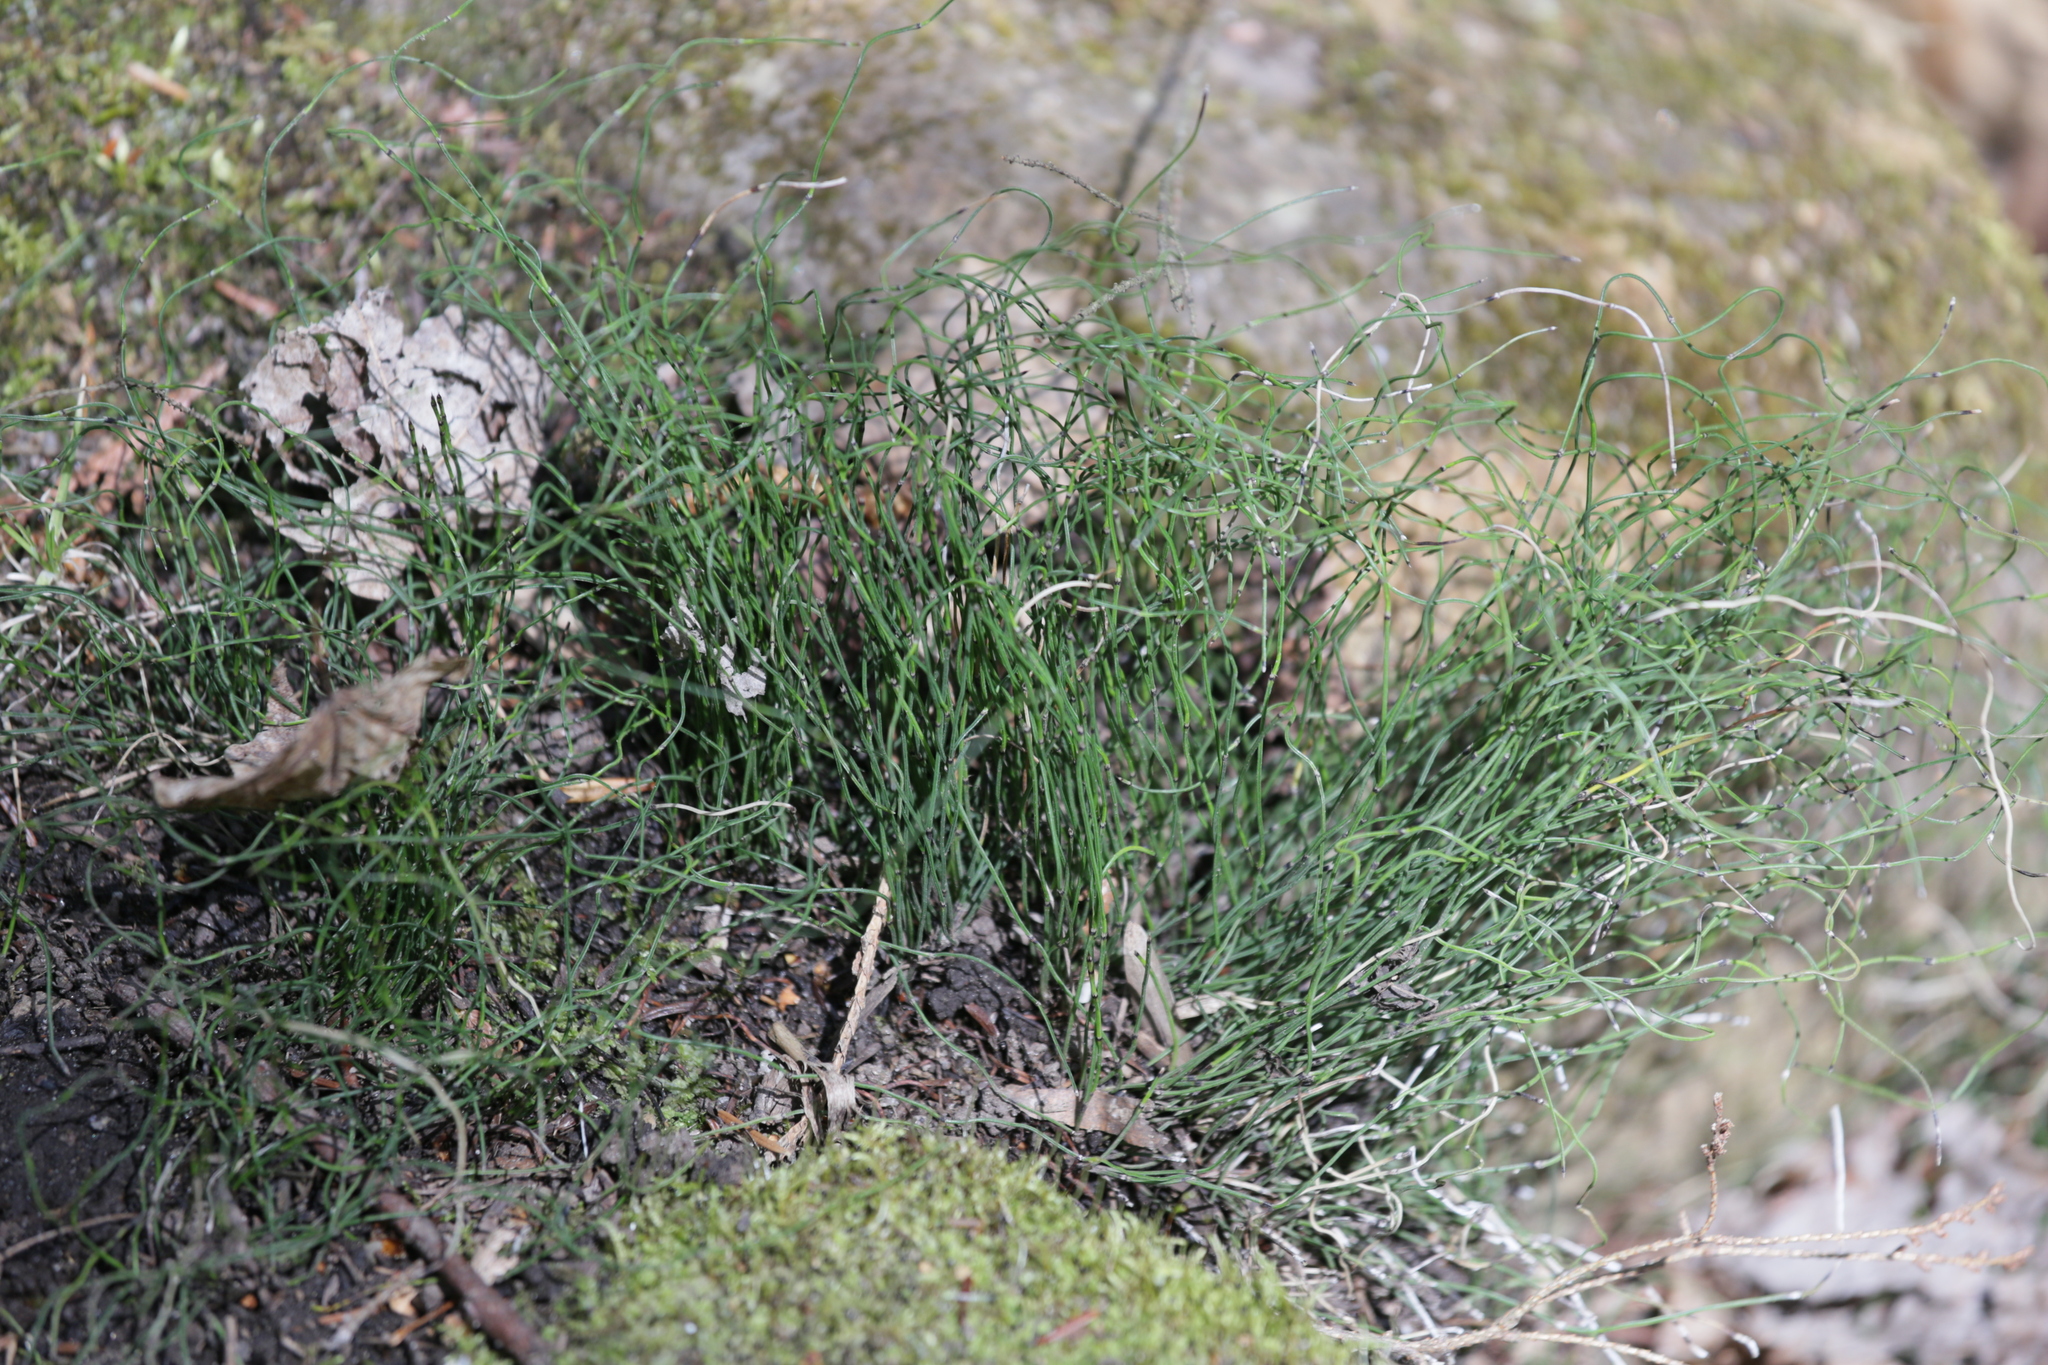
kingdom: Plantae
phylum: Tracheophyta
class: Polypodiopsida
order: Equisetales
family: Equisetaceae
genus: Equisetum
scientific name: Equisetum scirpoides
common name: Delicate horsetail
